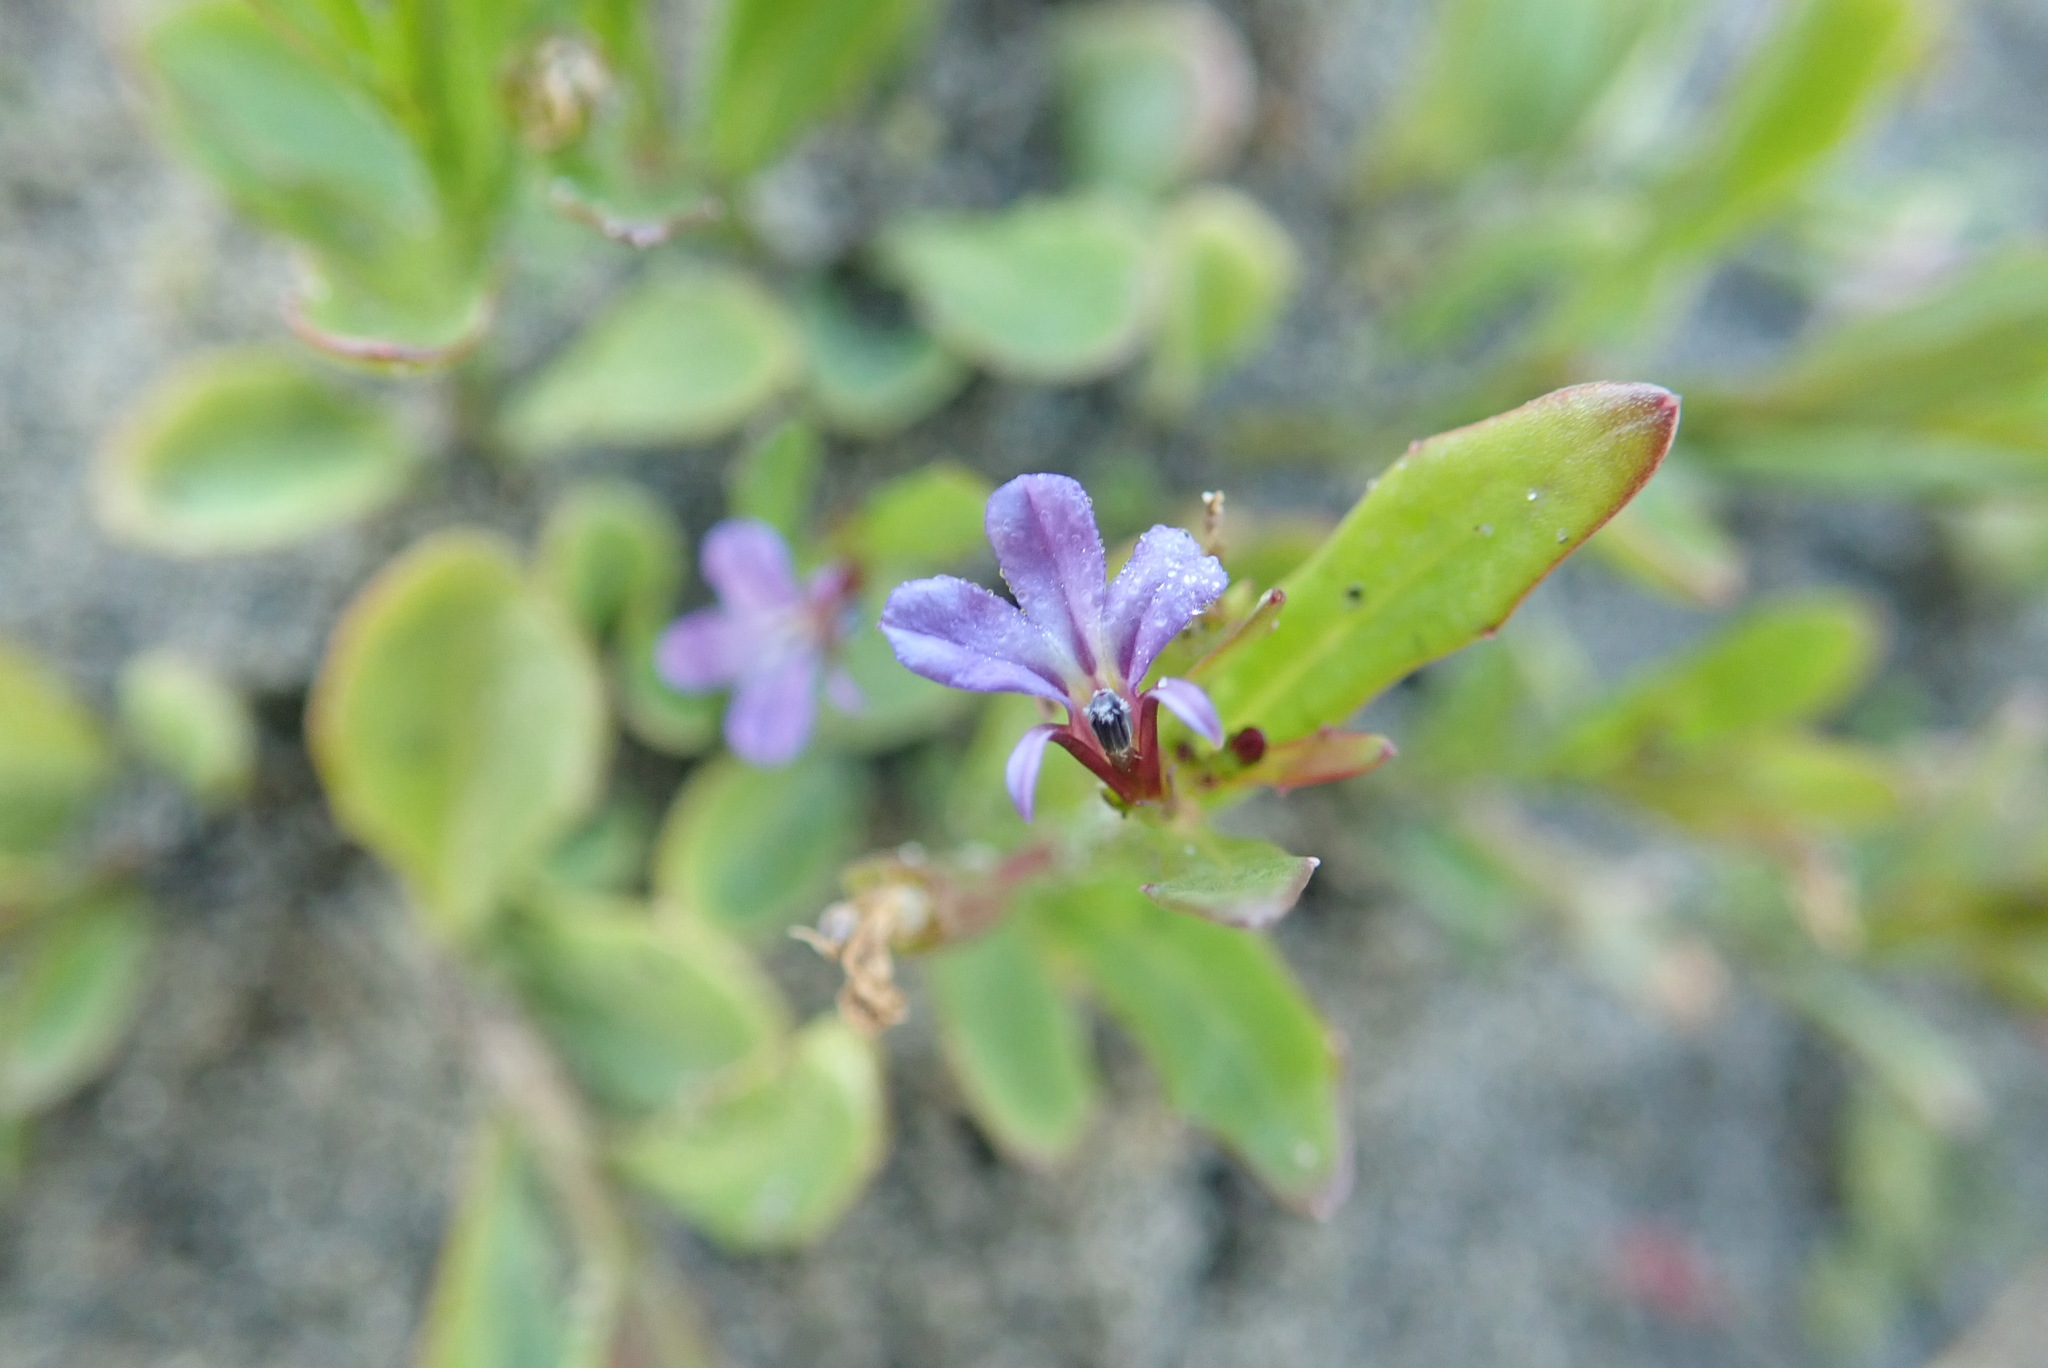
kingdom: Plantae
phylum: Tracheophyta
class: Magnoliopsida
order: Asterales
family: Campanulaceae
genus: Lobelia
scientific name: Lobelia anceps
